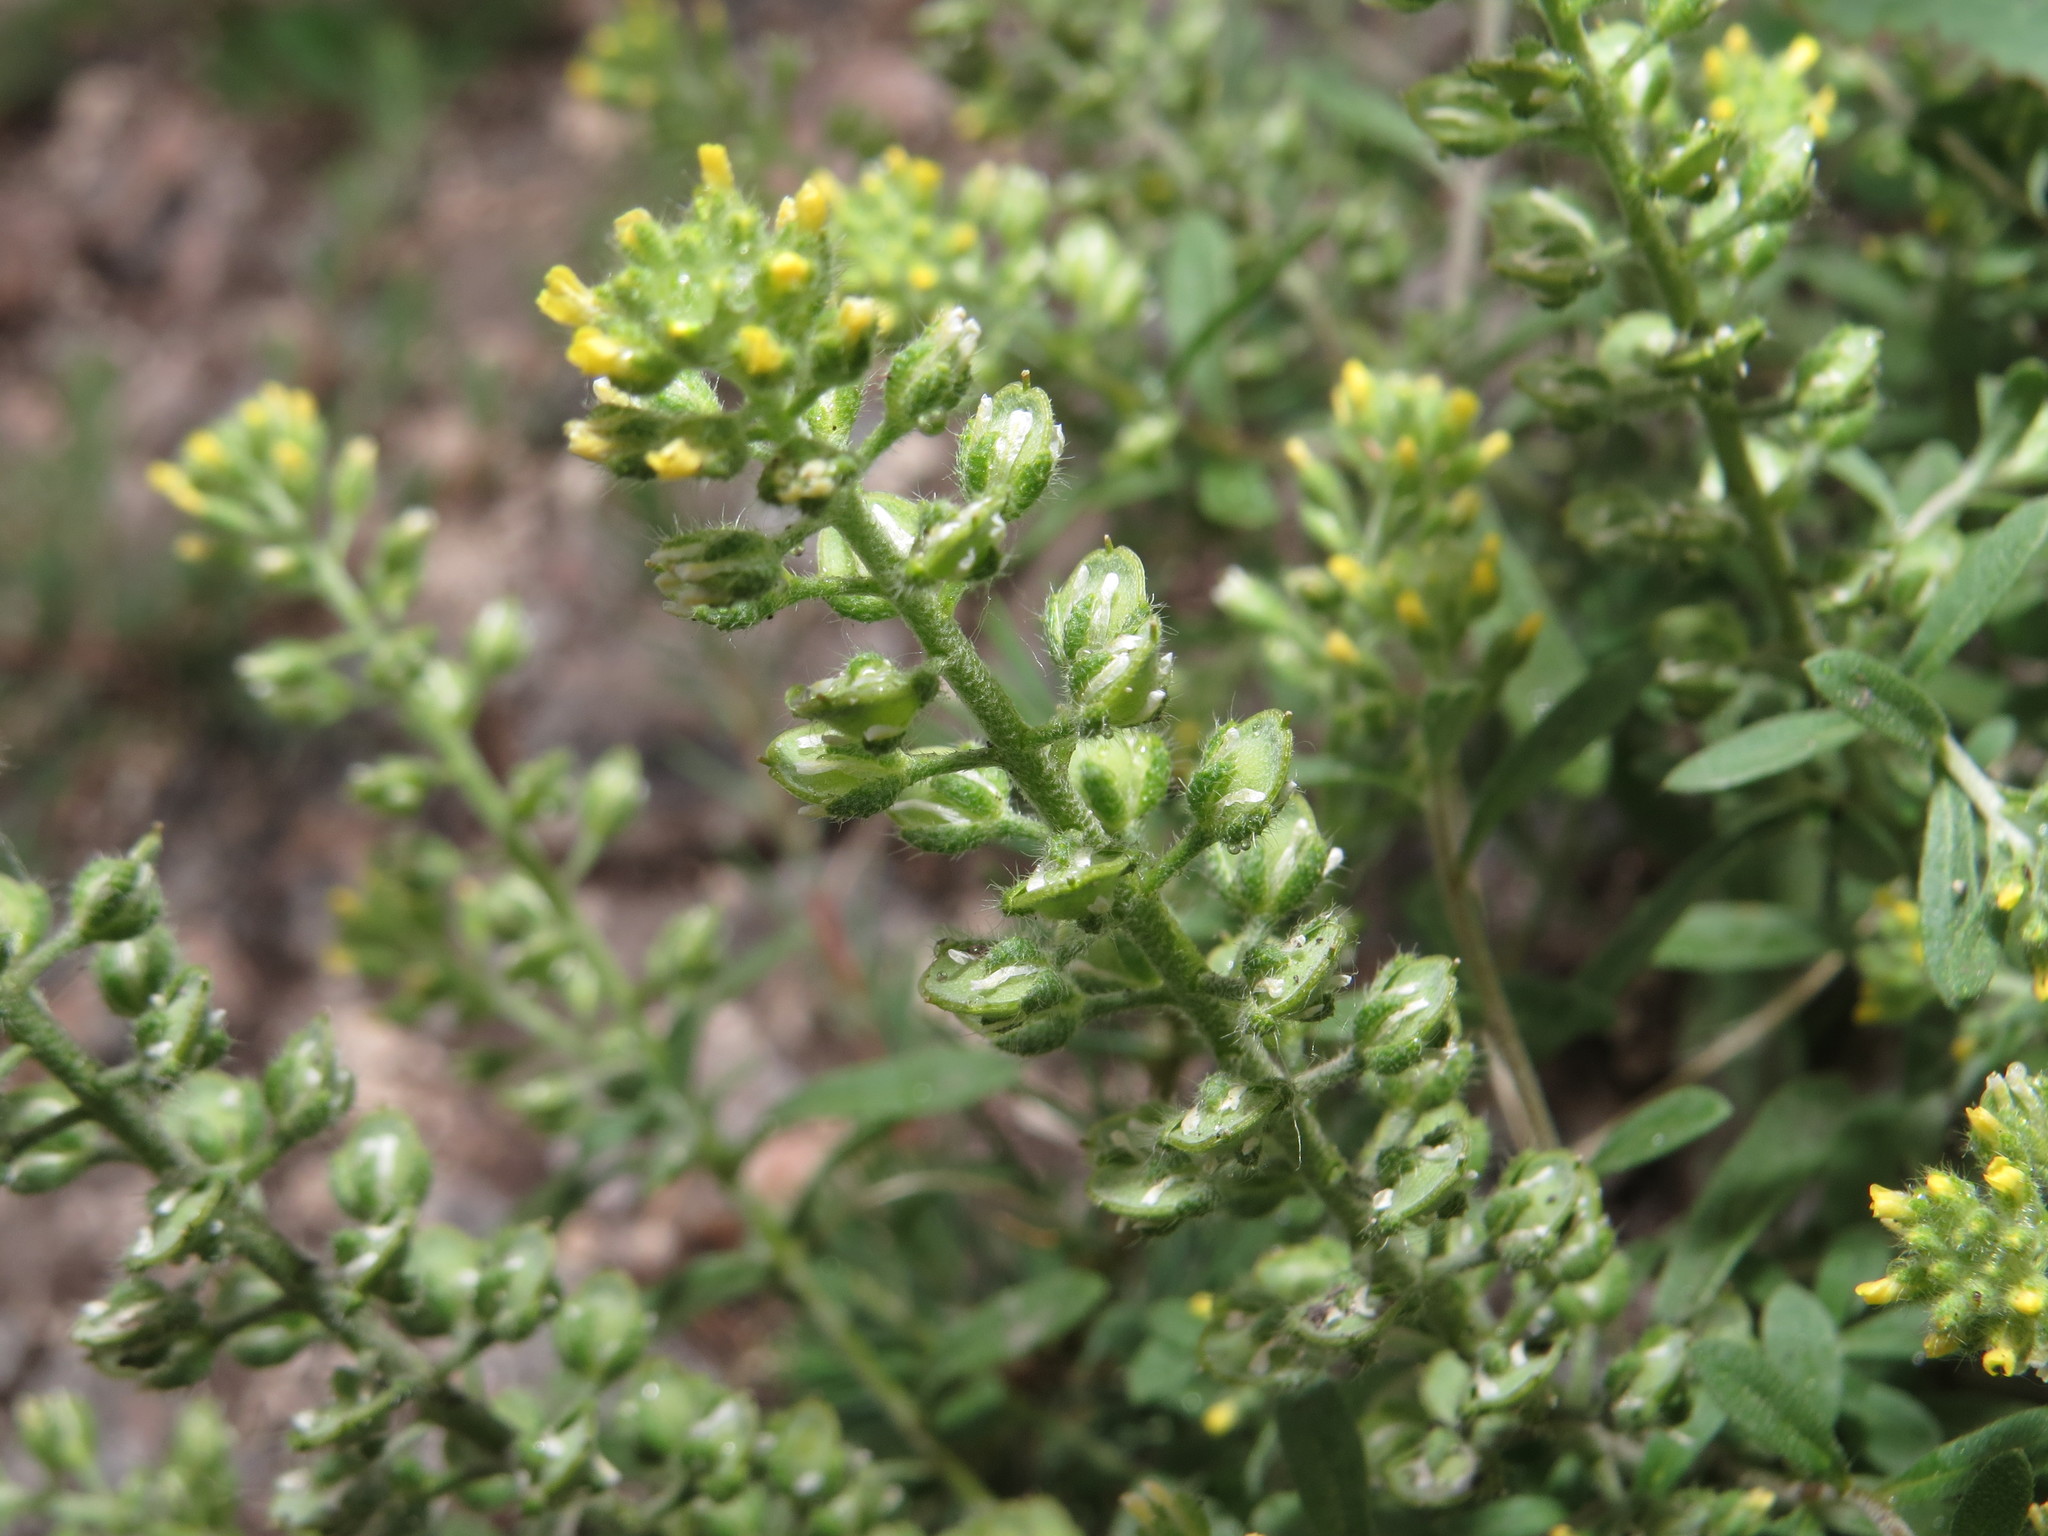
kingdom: Plantae
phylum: Tracheophyta
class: Magnoliopsida
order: Brassicales
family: Brassicaceae
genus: Alyssum
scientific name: Alyssum alyssoides
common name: Small alison
